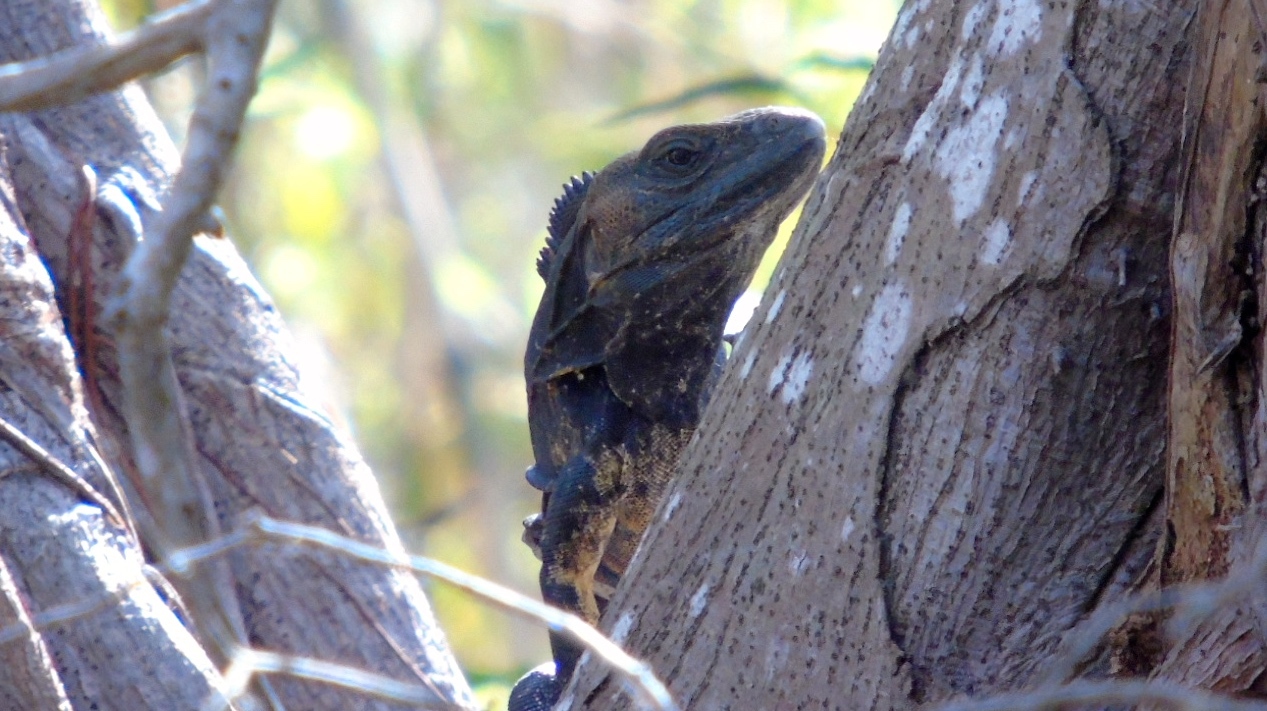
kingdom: Animalia
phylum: Chordata
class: Squamata
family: Iguanidae
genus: Ctenosaura
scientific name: Ctenosaura pectinata
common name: Guerreran spiny-tailed iguana
